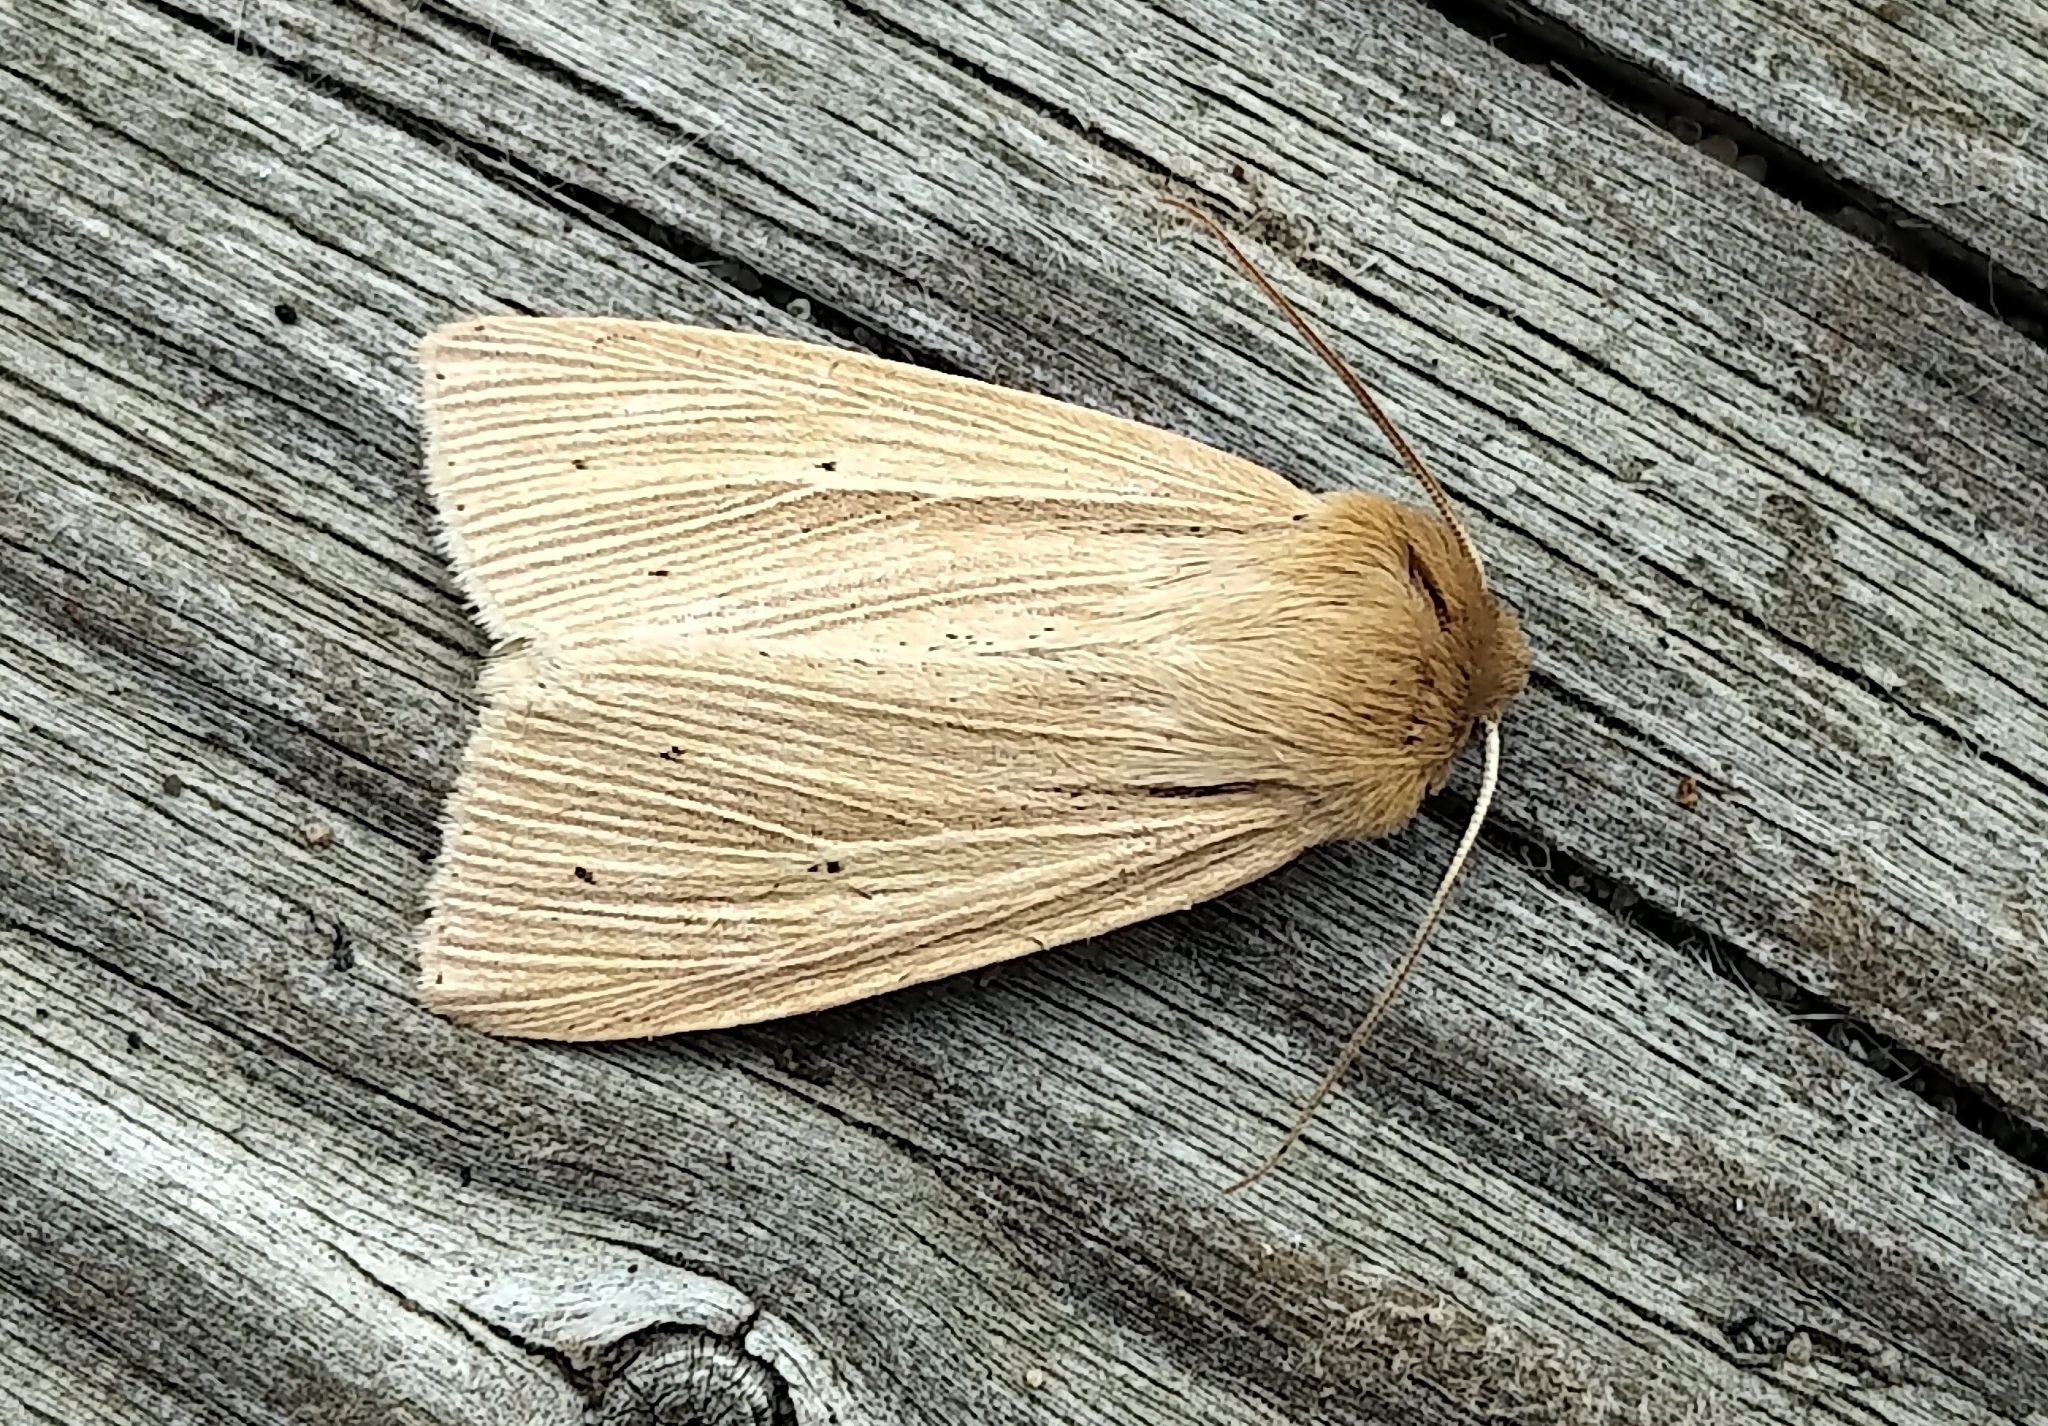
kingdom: Animalia
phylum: Arthropoda
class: Insecta
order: Lepidoptera
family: Noctuidae
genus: Mythimna
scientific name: Mythimna oxygala
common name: Lesser wainscot
